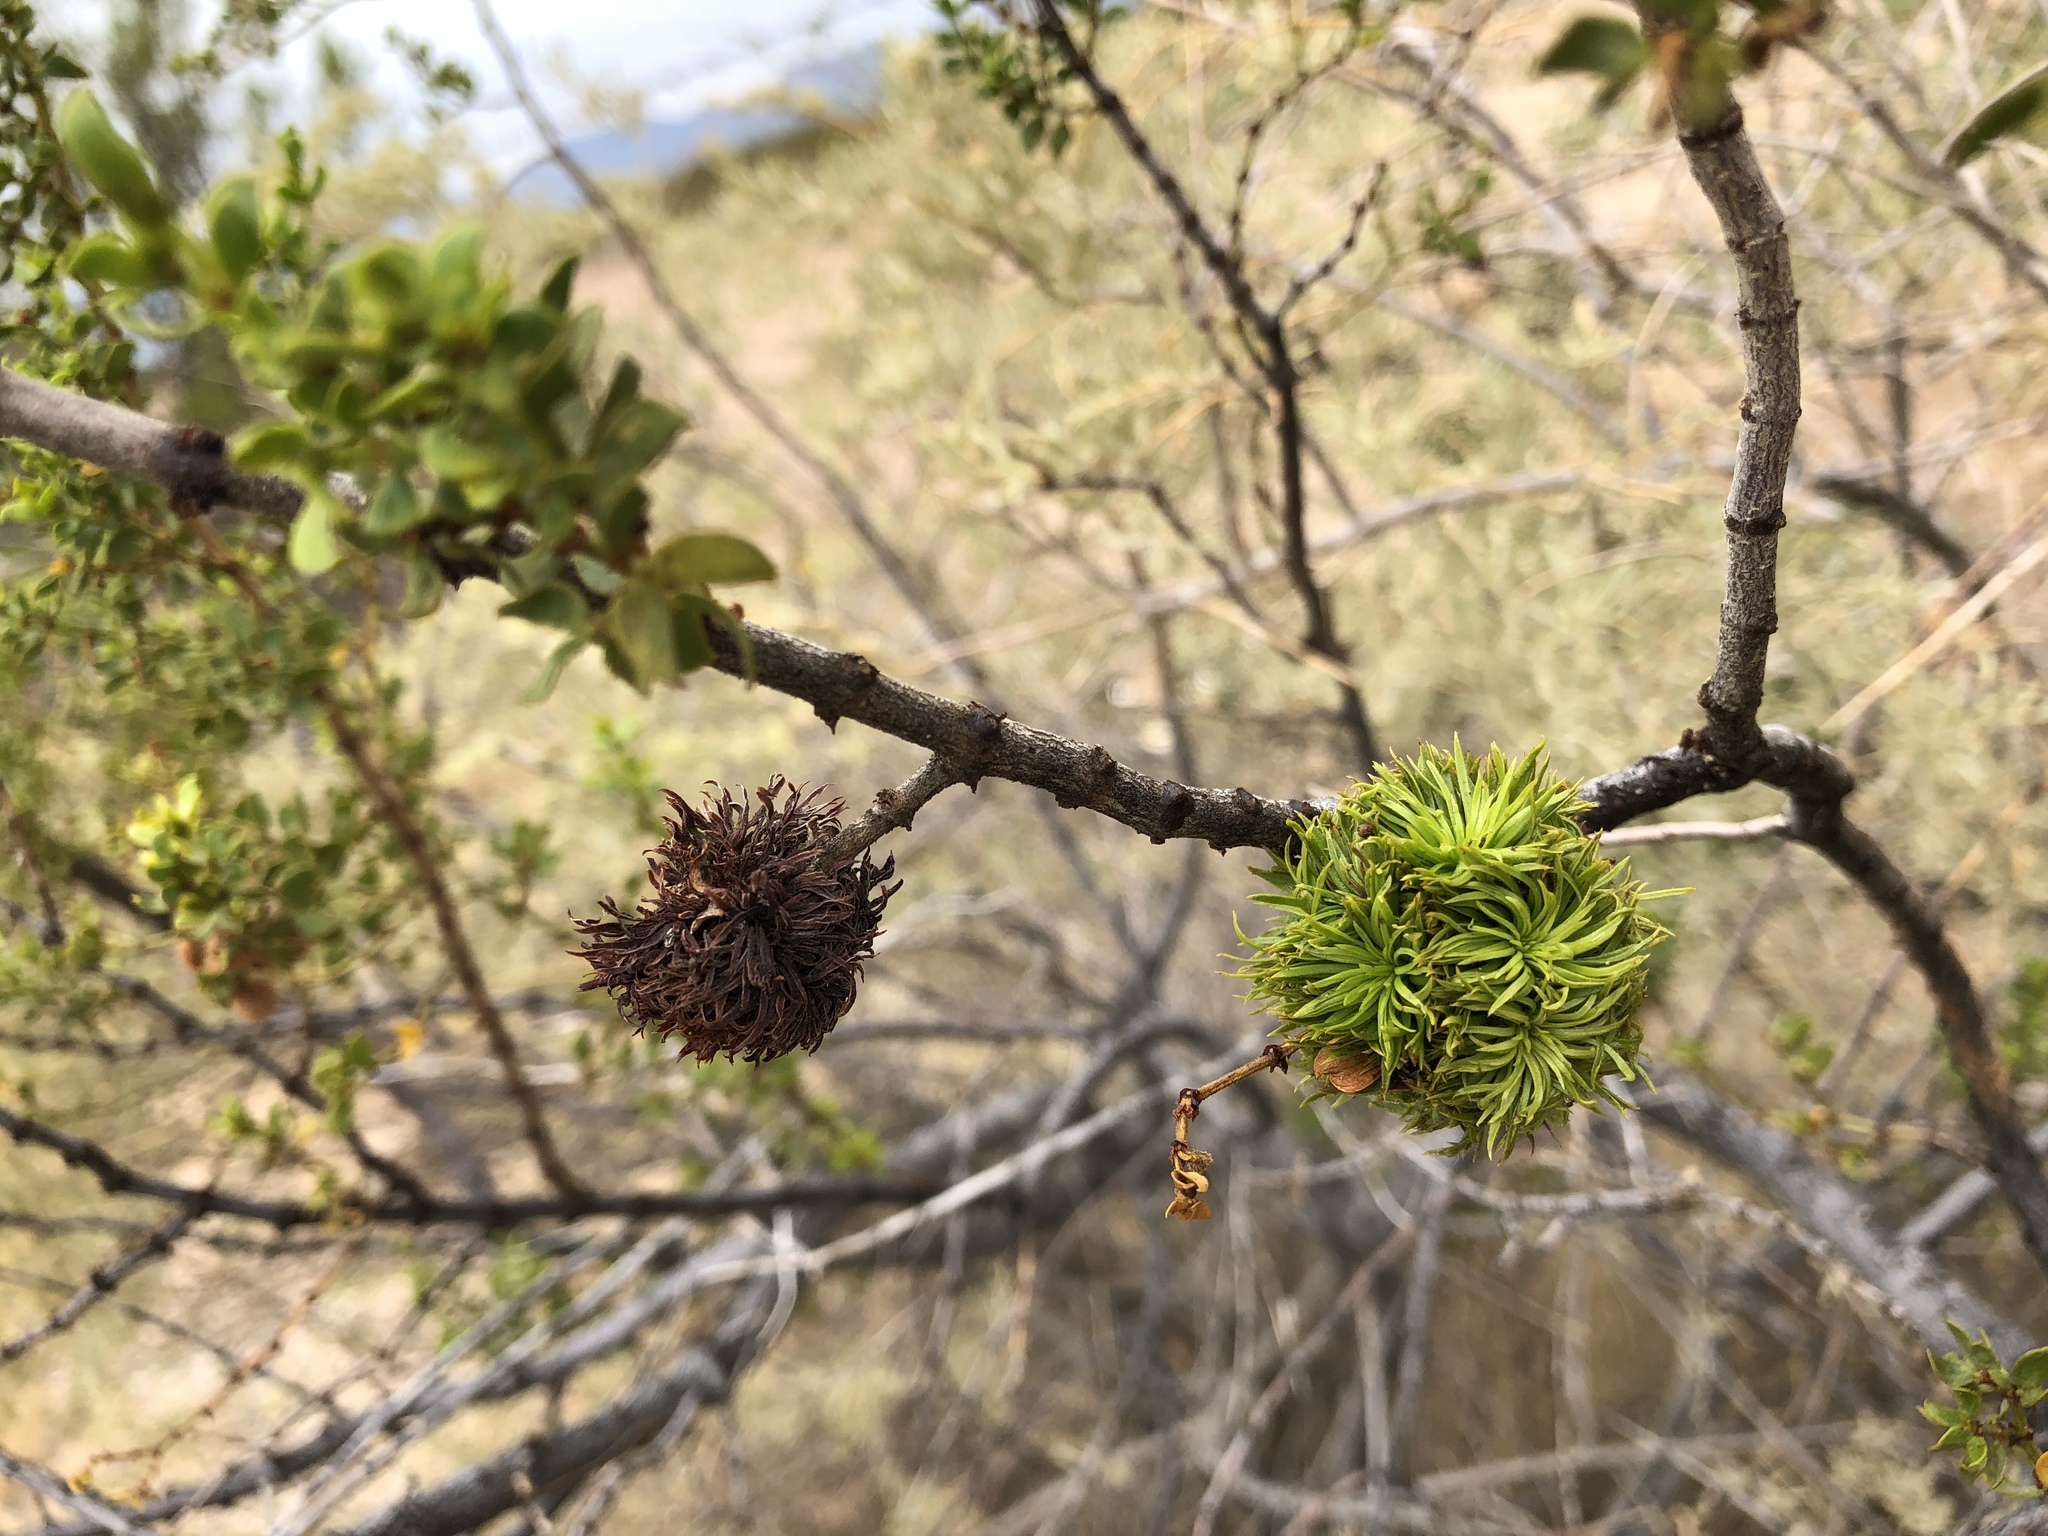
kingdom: Animalia
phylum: Arthropoda
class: Insecta
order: Diptera
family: Cecidomyiidae
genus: Asphondylia
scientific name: Asphondylia auripila
